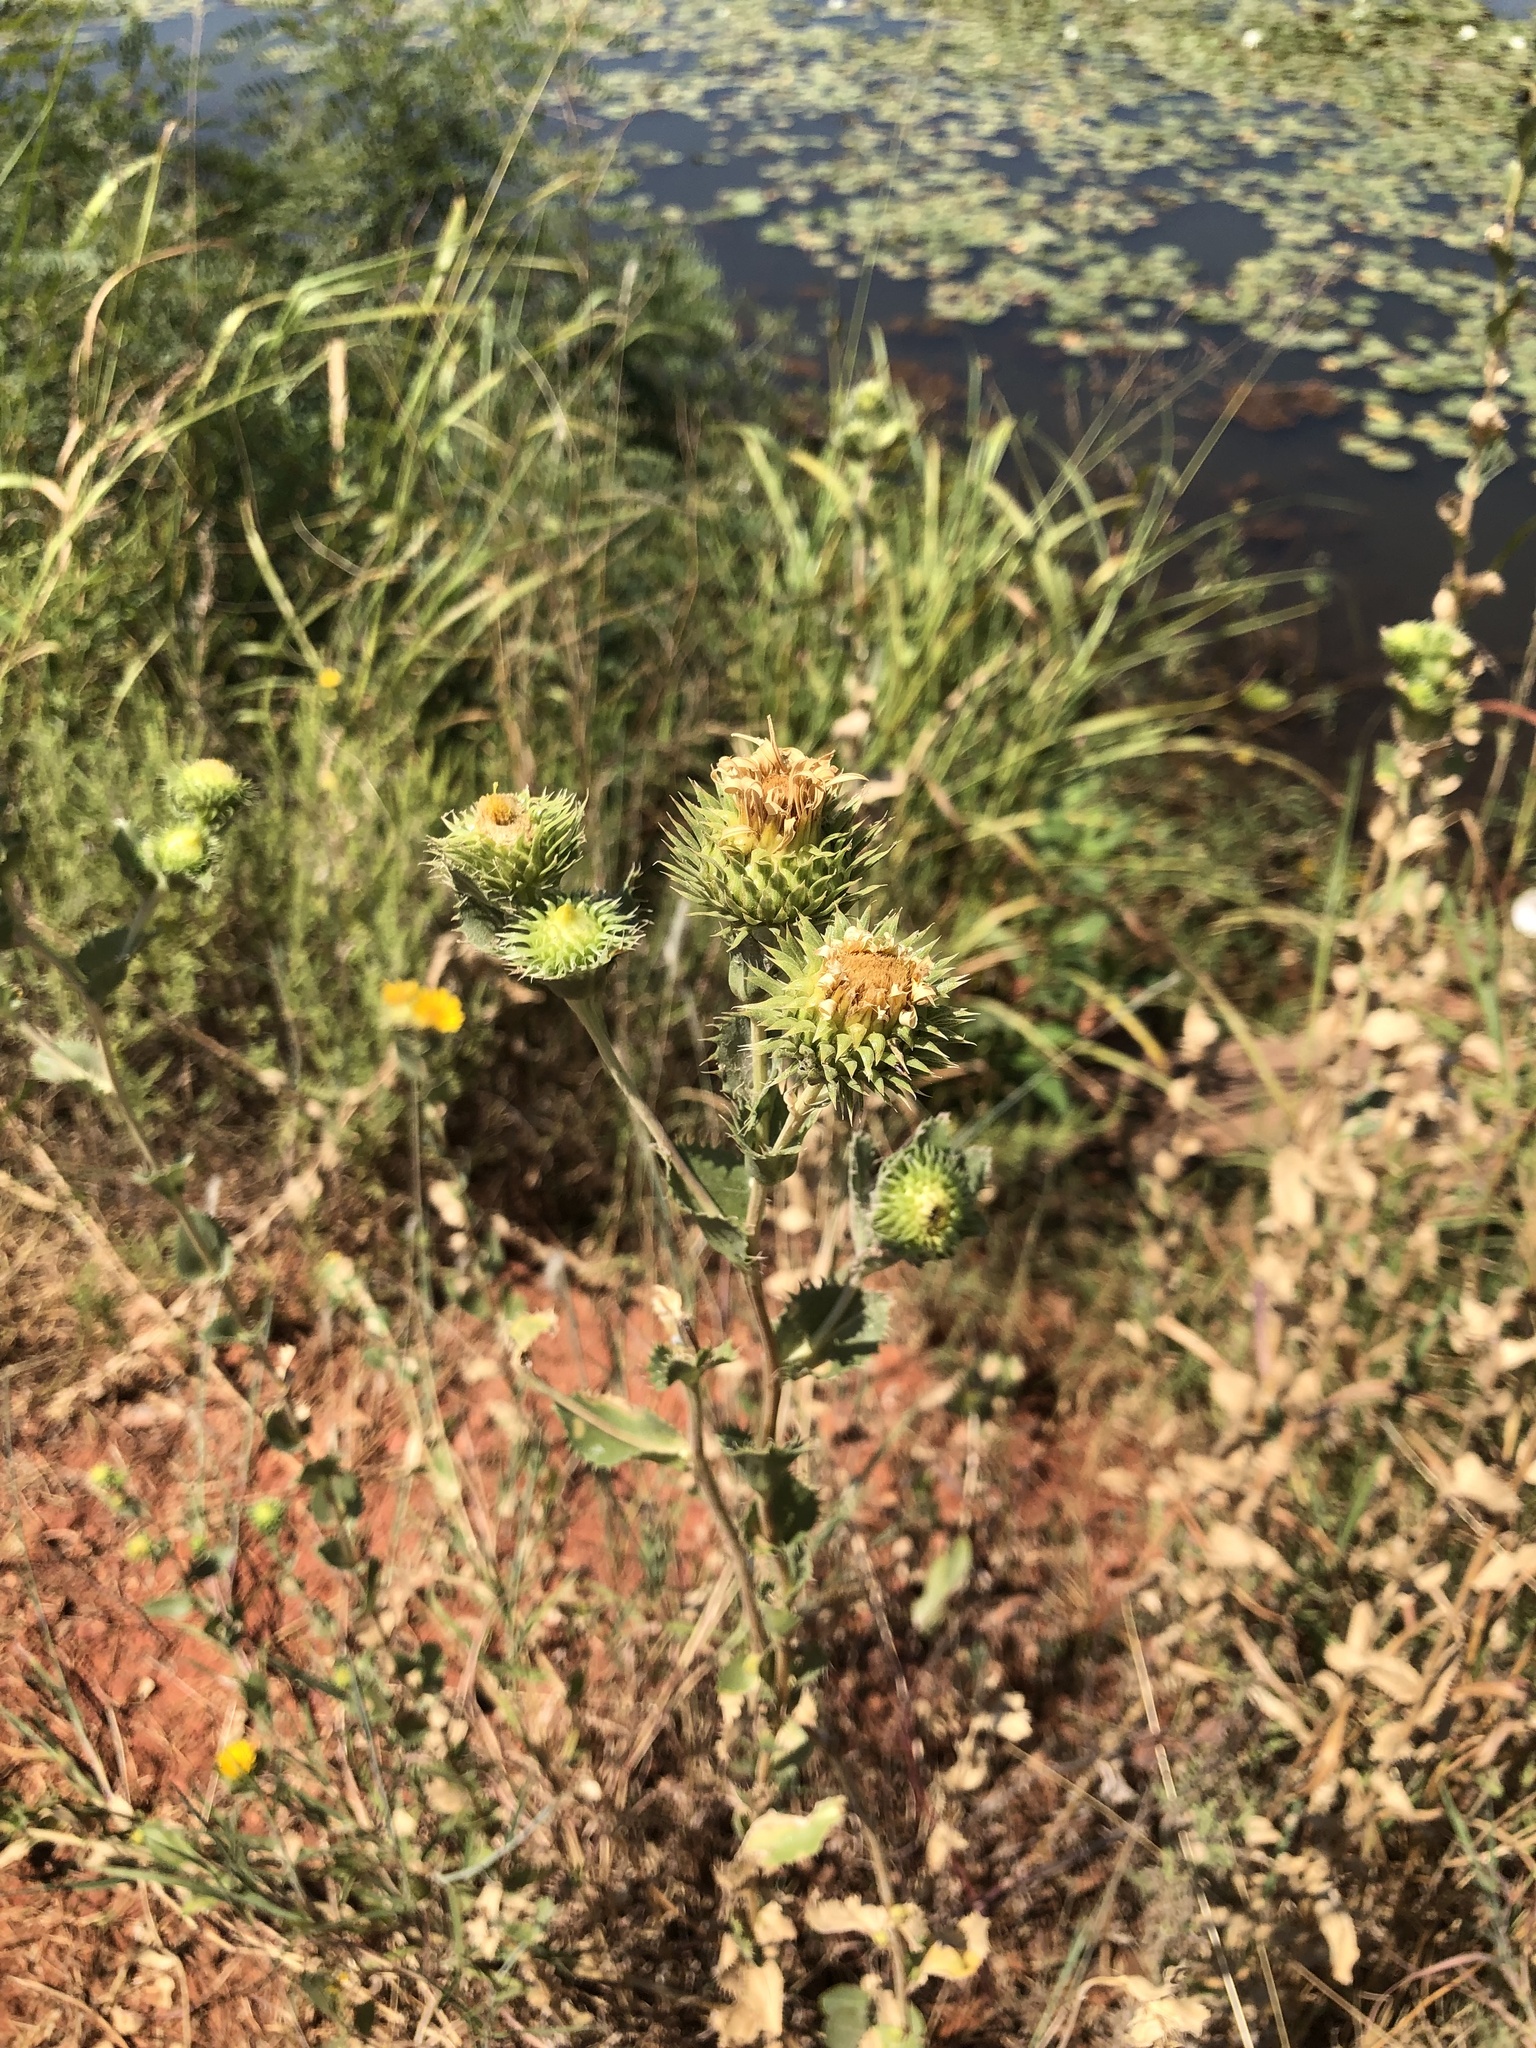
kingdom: Plantae
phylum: Tracheophyta
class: Magnoliopsida
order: Asterales
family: Asteraceae
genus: Grindelia
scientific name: Grindelia ciliata
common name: Goldenweed
